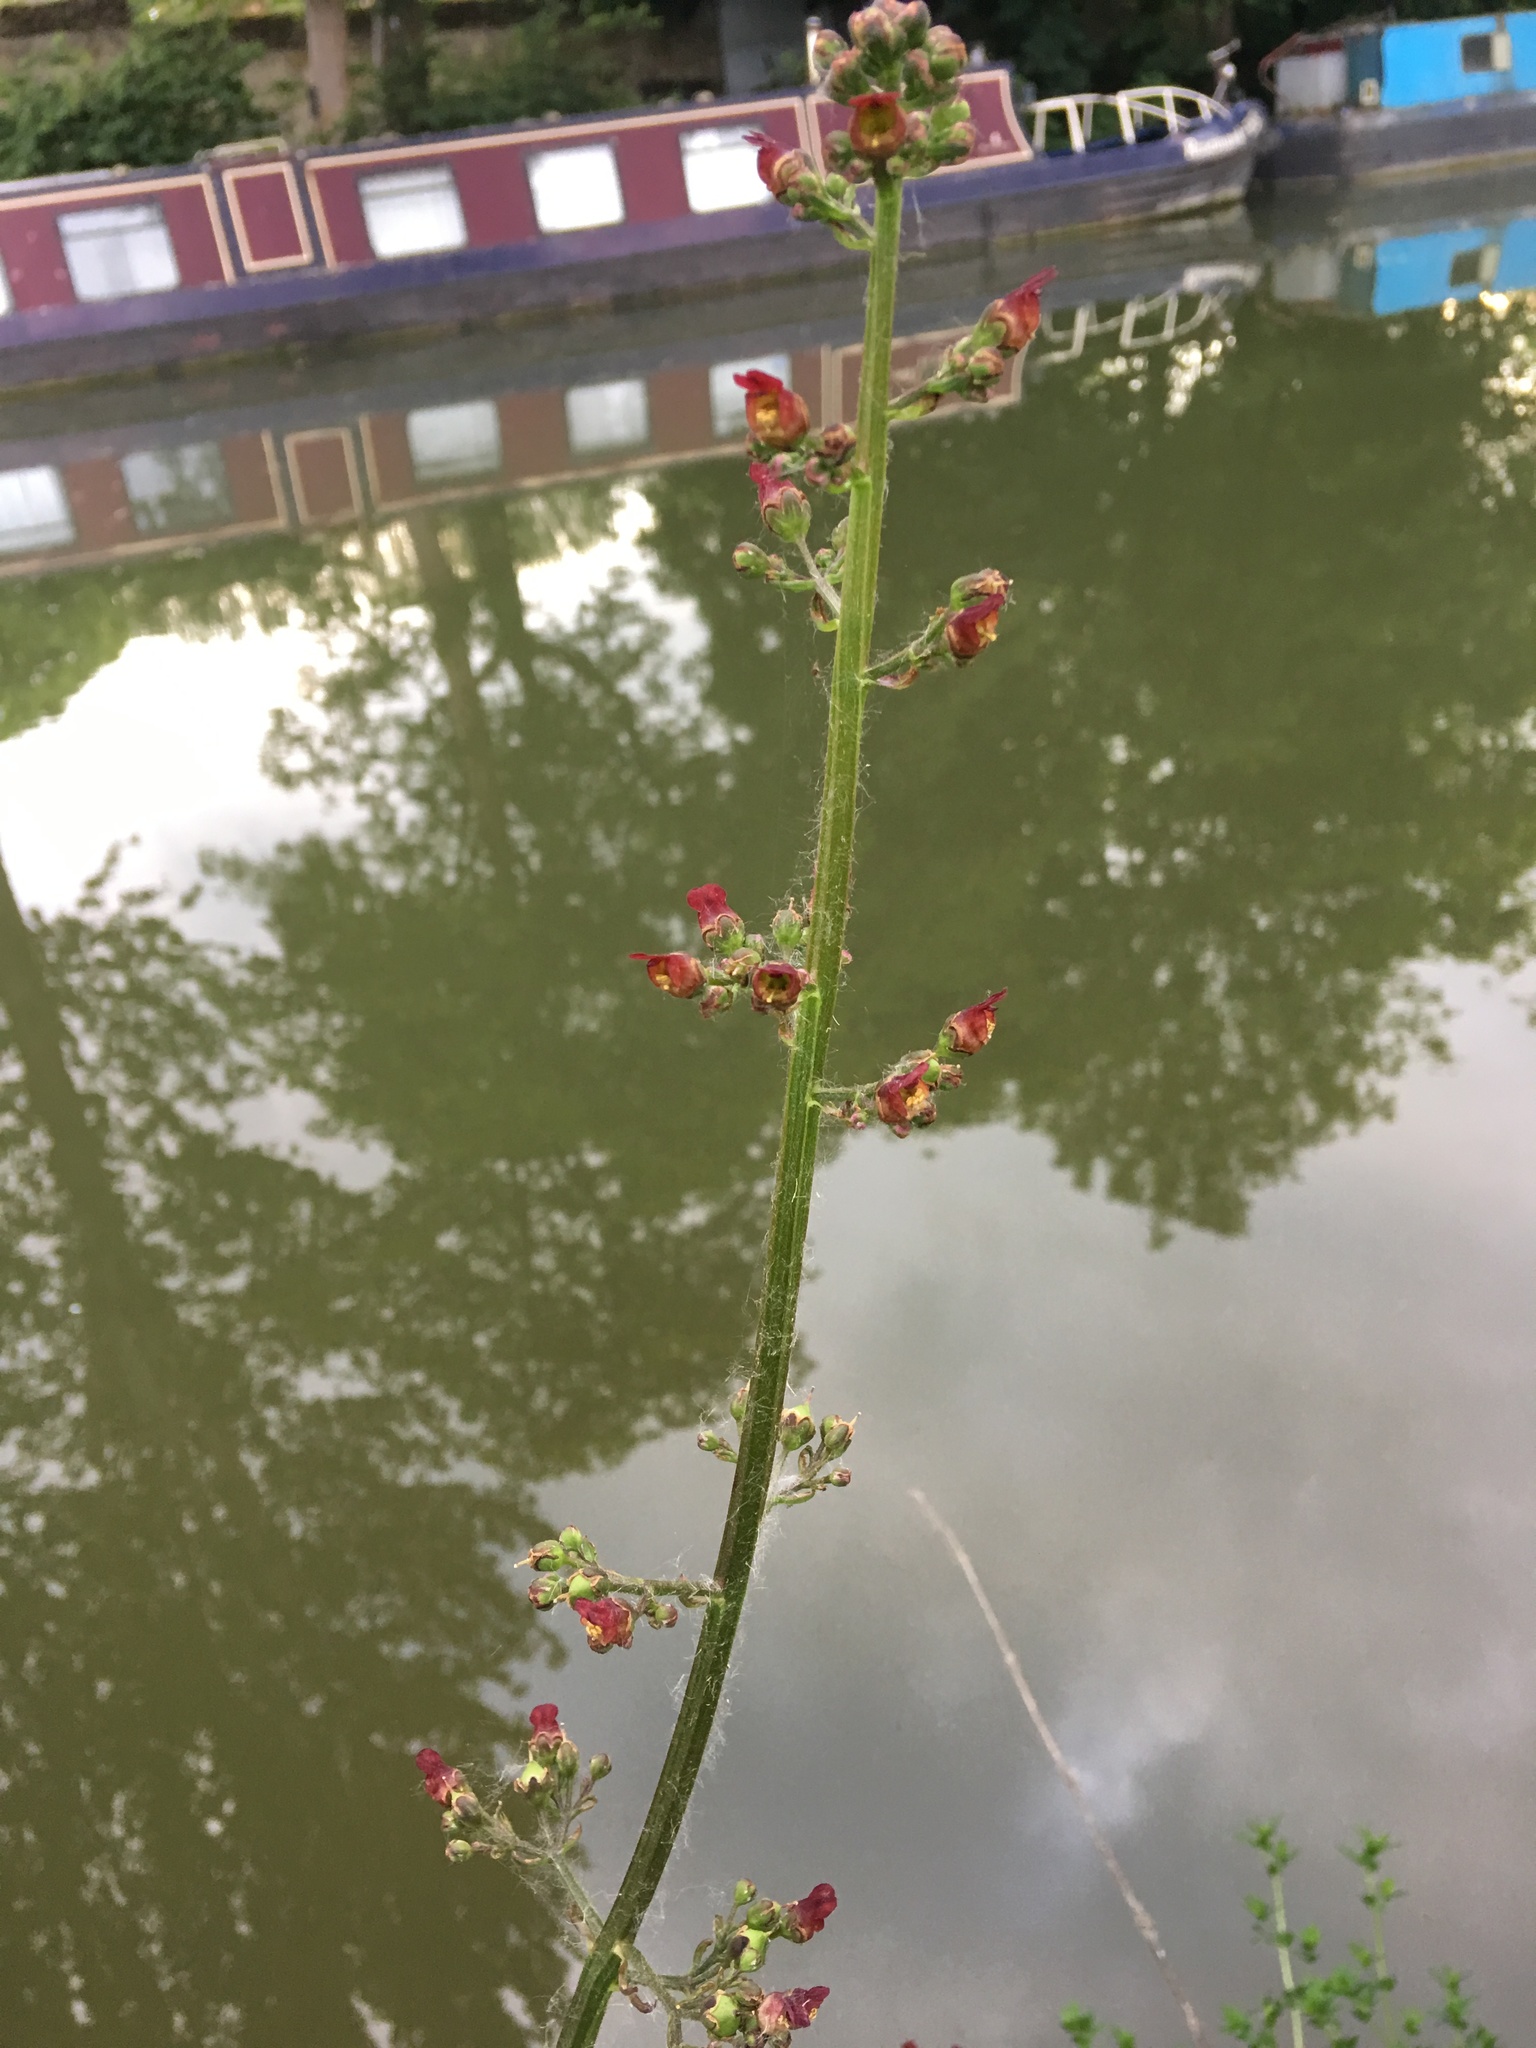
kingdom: Plantae
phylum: Tracheophyta
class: Magnoliopsida
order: Lamiales
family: Scrophulariaceae
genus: Scrophularia
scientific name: Scrophularia auriculata
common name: Water betony
